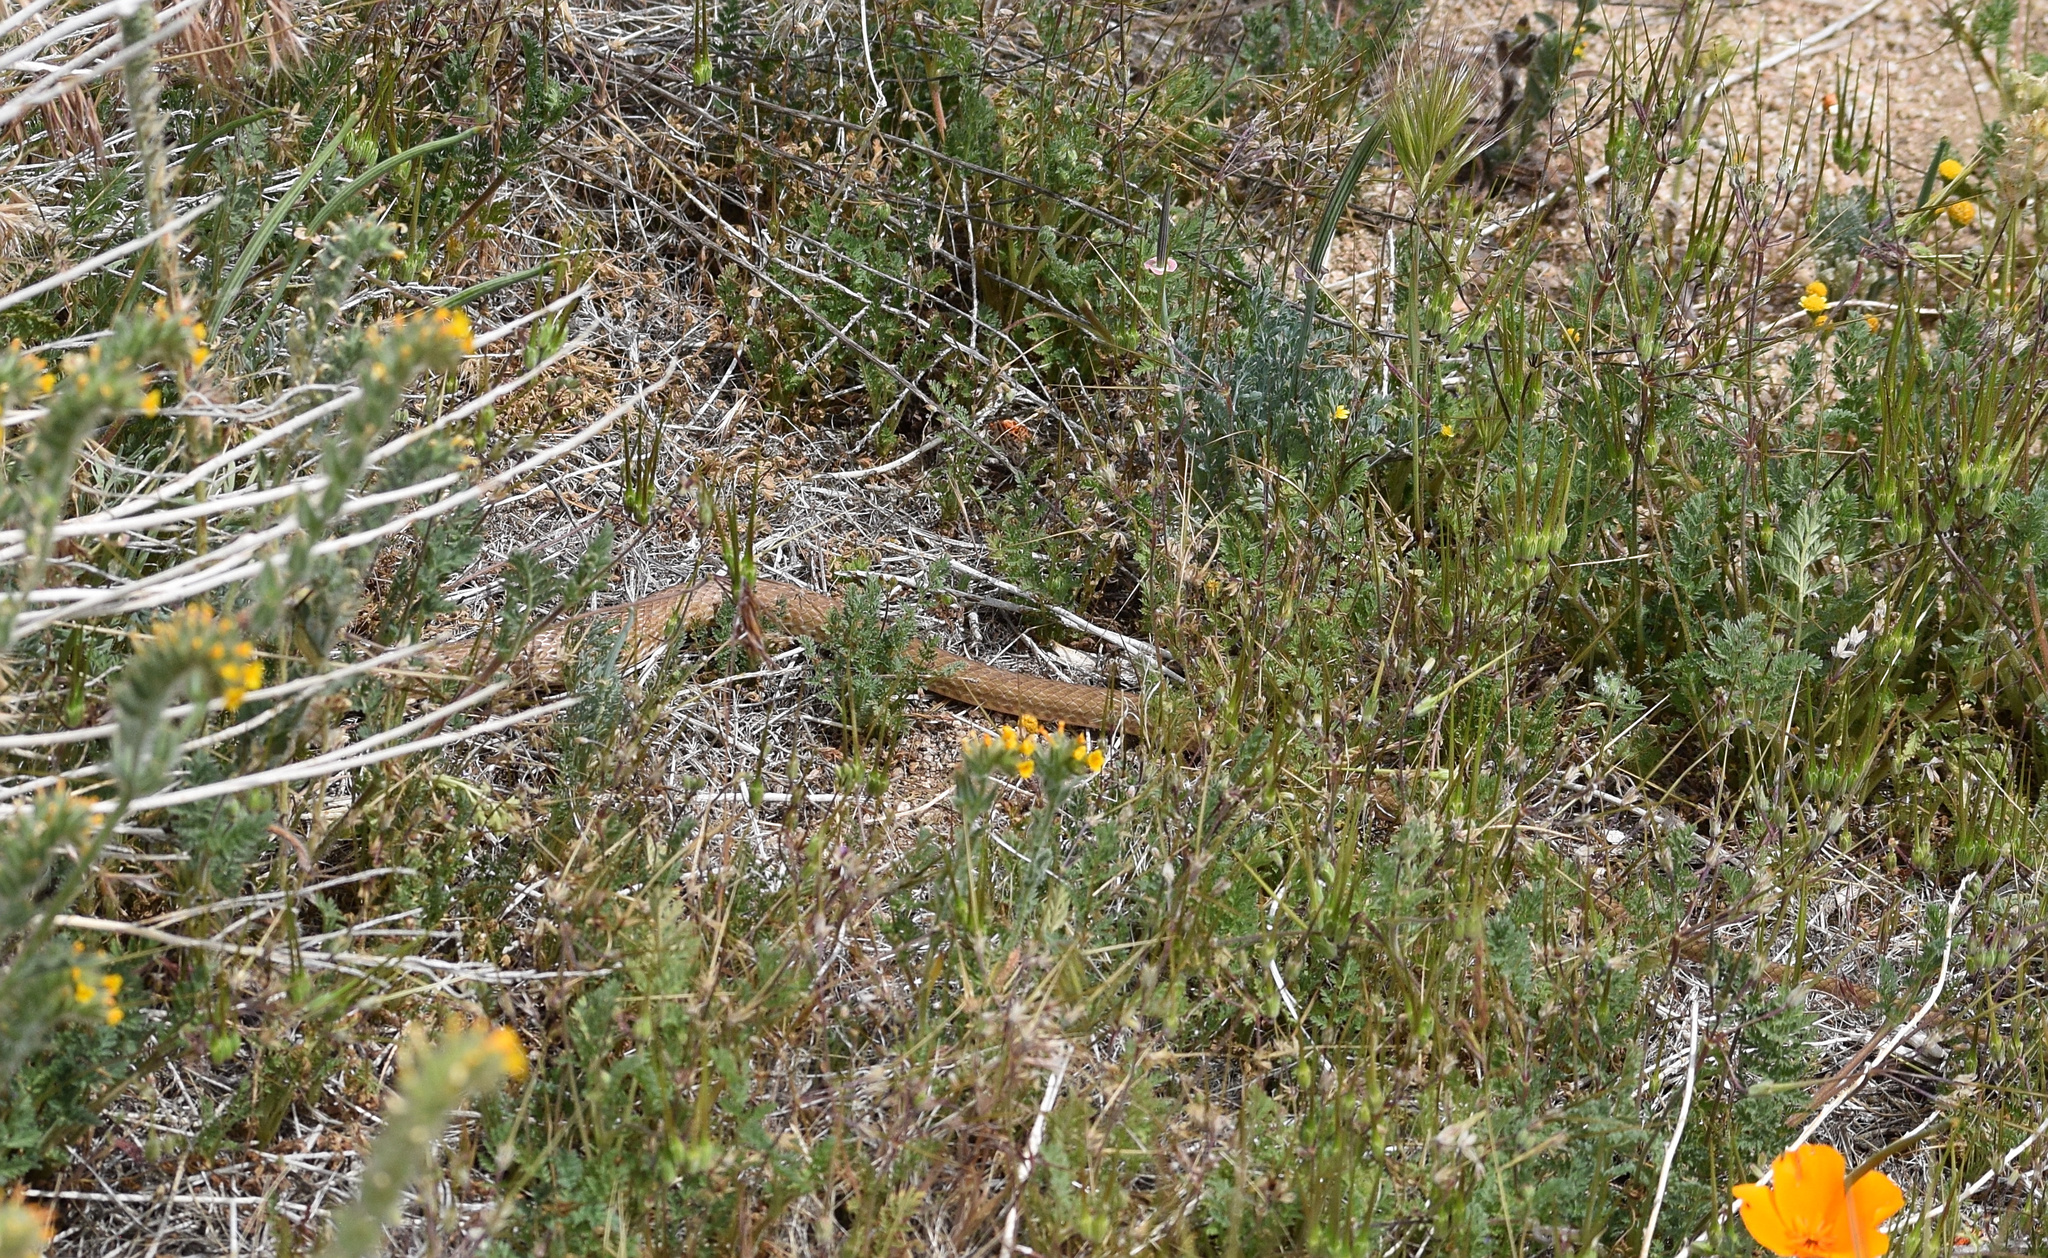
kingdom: Animalia
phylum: Chordata
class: Squamata
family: Colubridae
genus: Masticophis
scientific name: Masticophis flagellum
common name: Coachwhip
